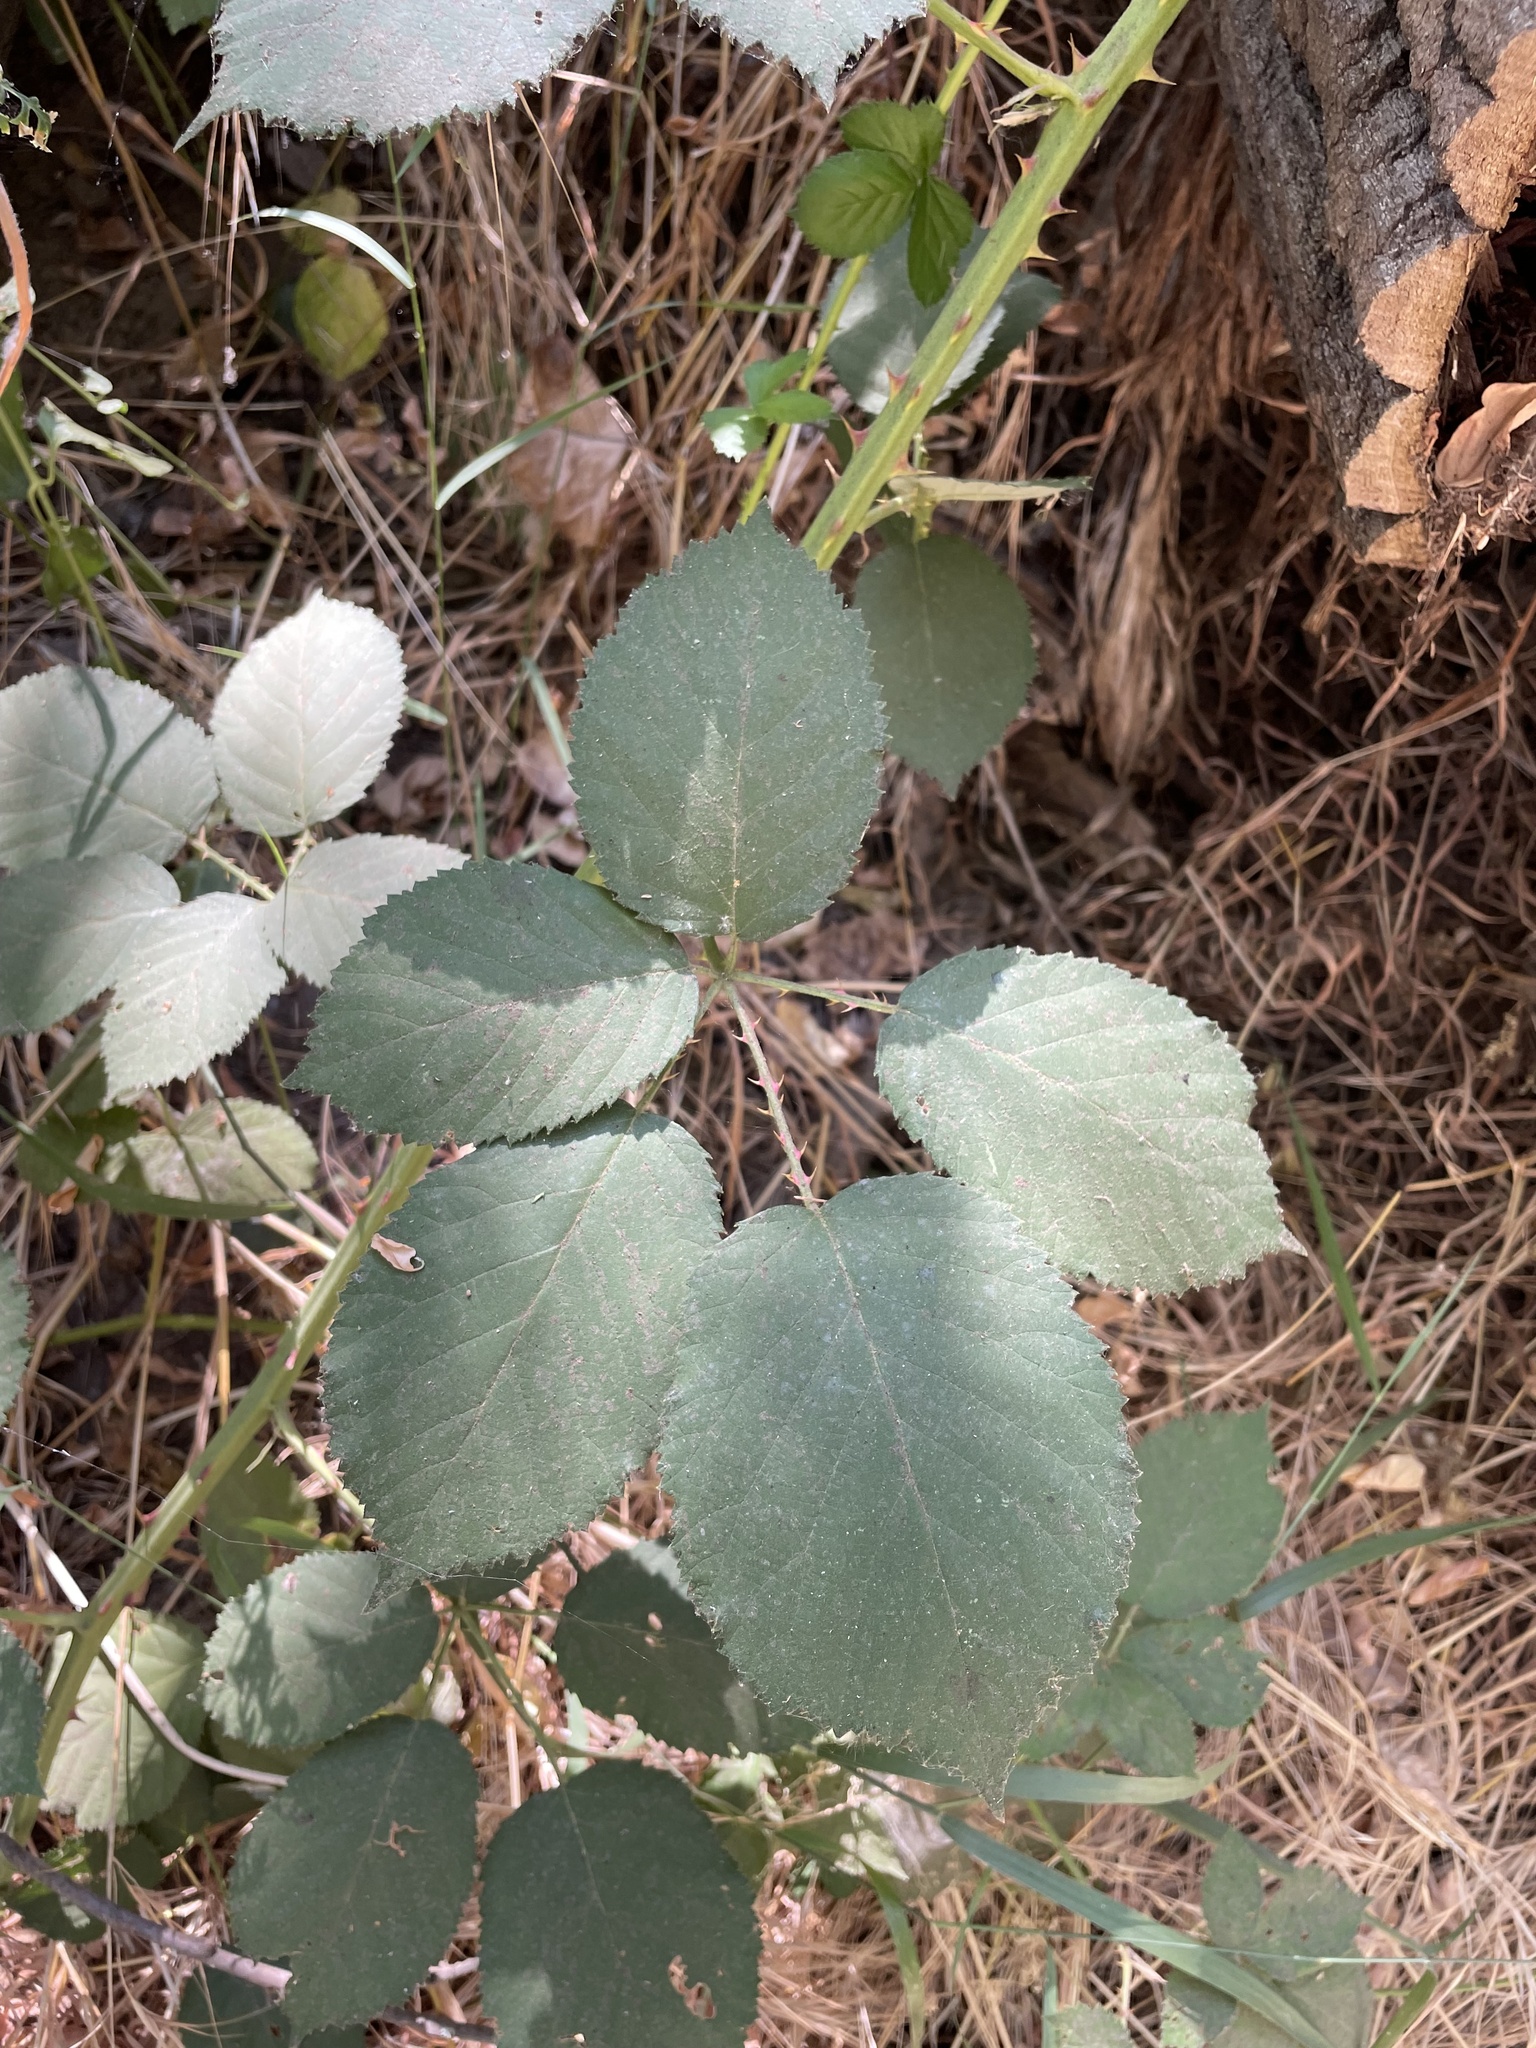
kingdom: Plantae
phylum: Tracheophyta
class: Magnoliopsida
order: Rosales
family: Rosaceae
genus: Rubus
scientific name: Rubus armeniacus
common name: Himalayan blackberry
